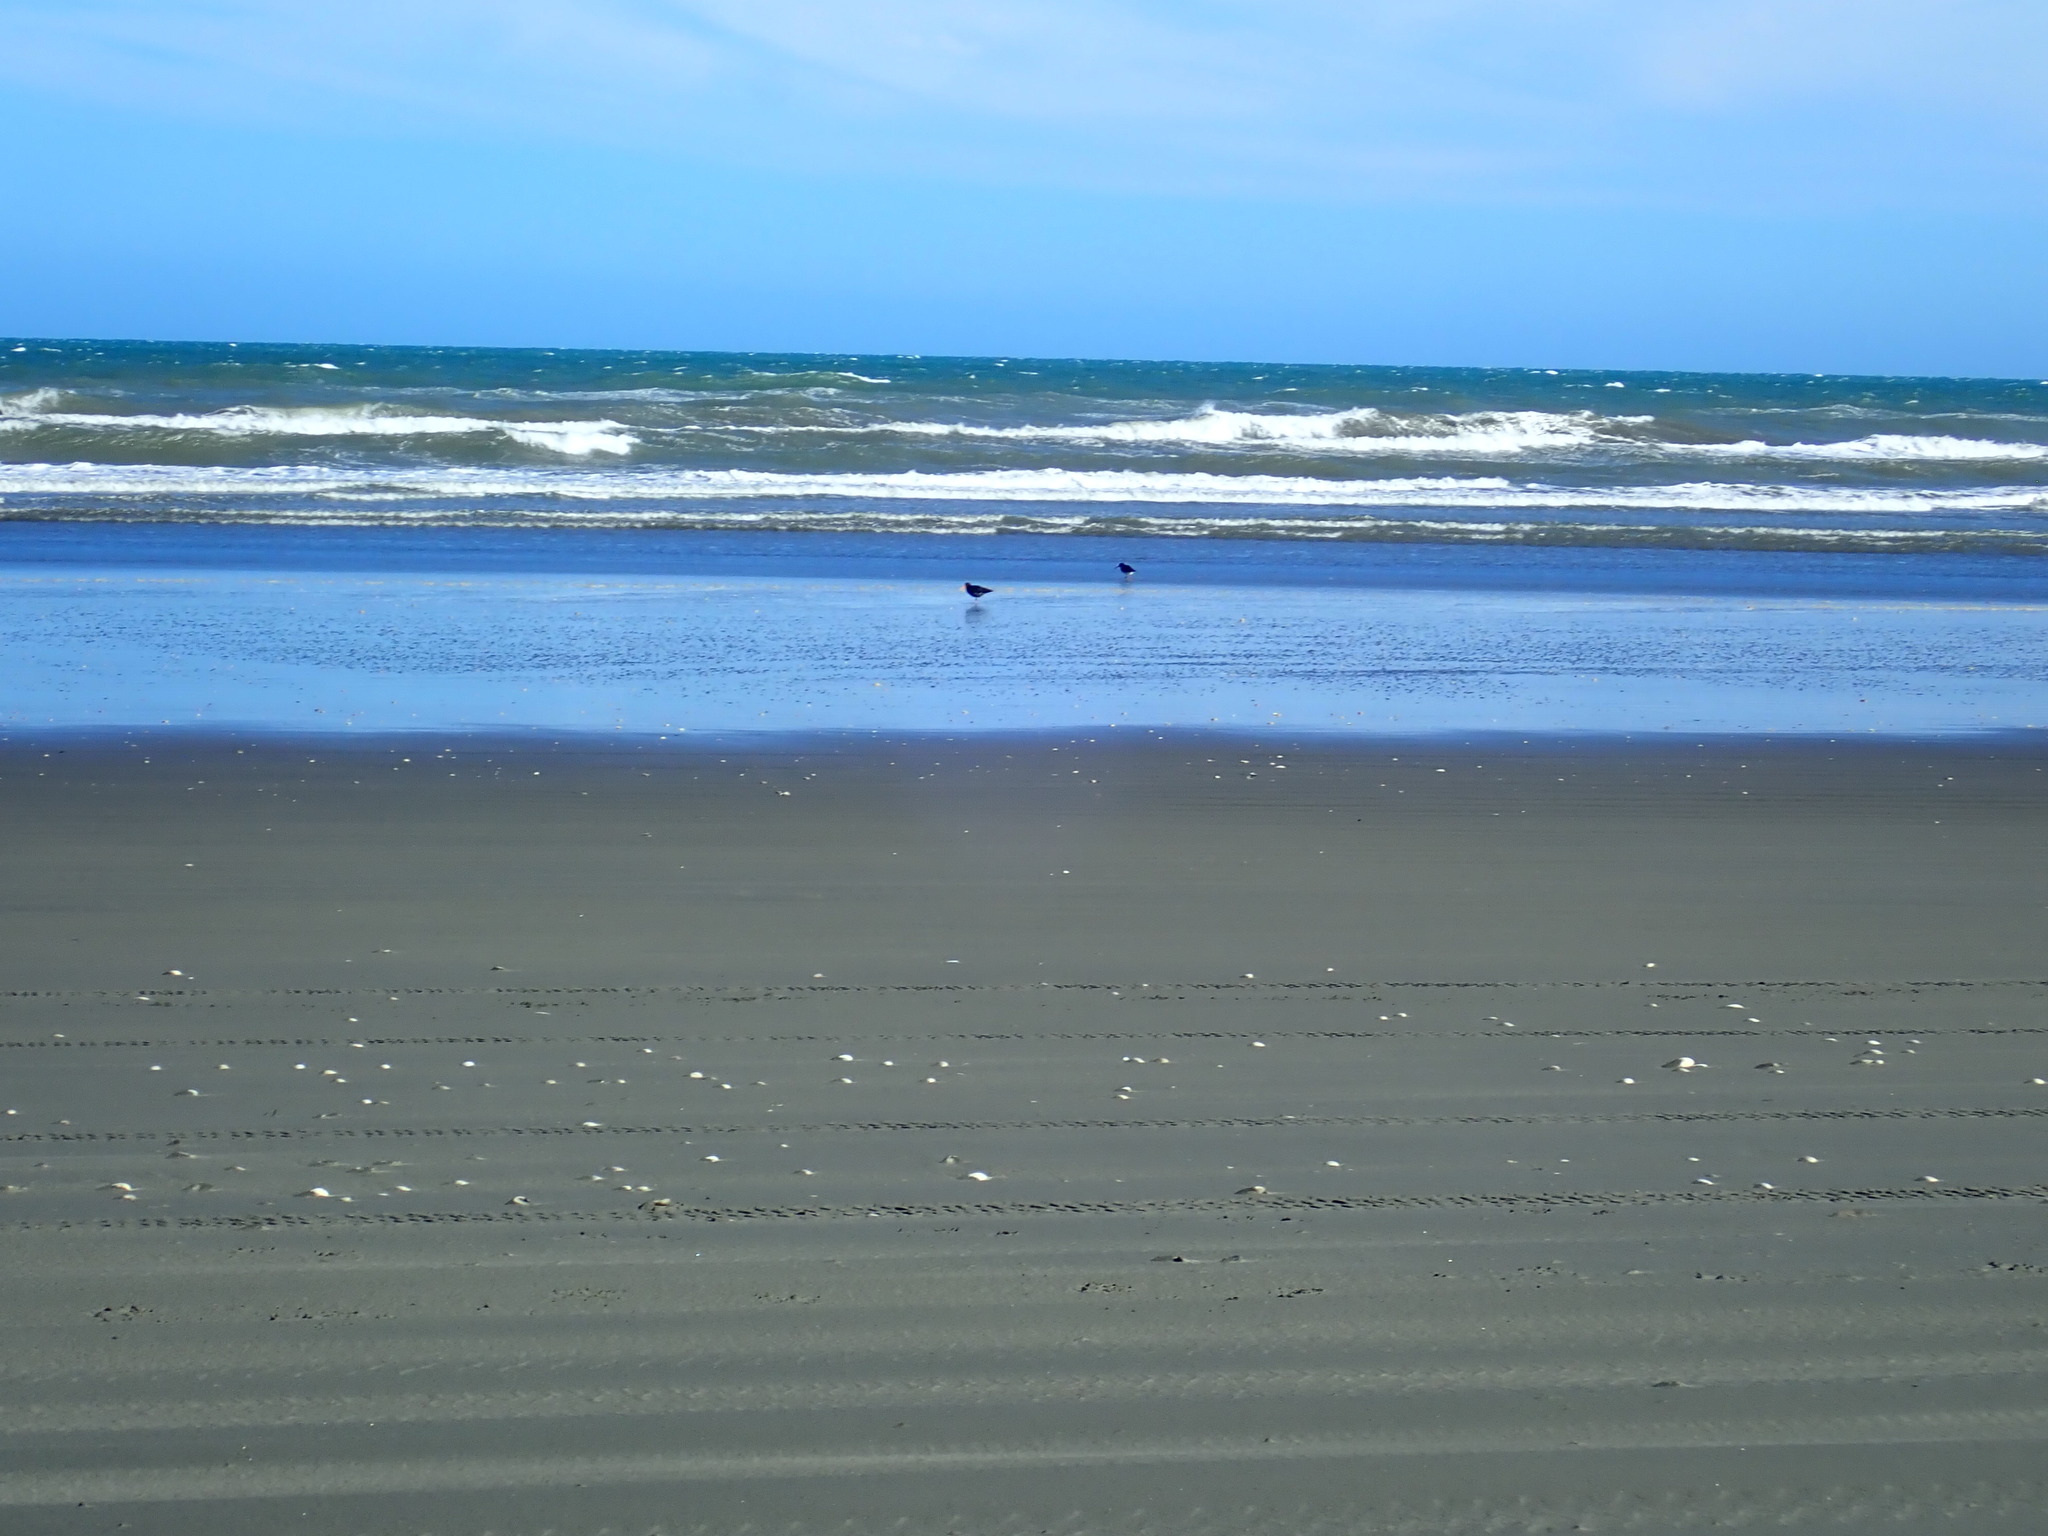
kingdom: Animalia
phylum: Chordata
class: Aves
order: Charadriiformes
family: Haematopodidae
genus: Haematopus
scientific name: Haematopus unicolor
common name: Variable oystercatcher
